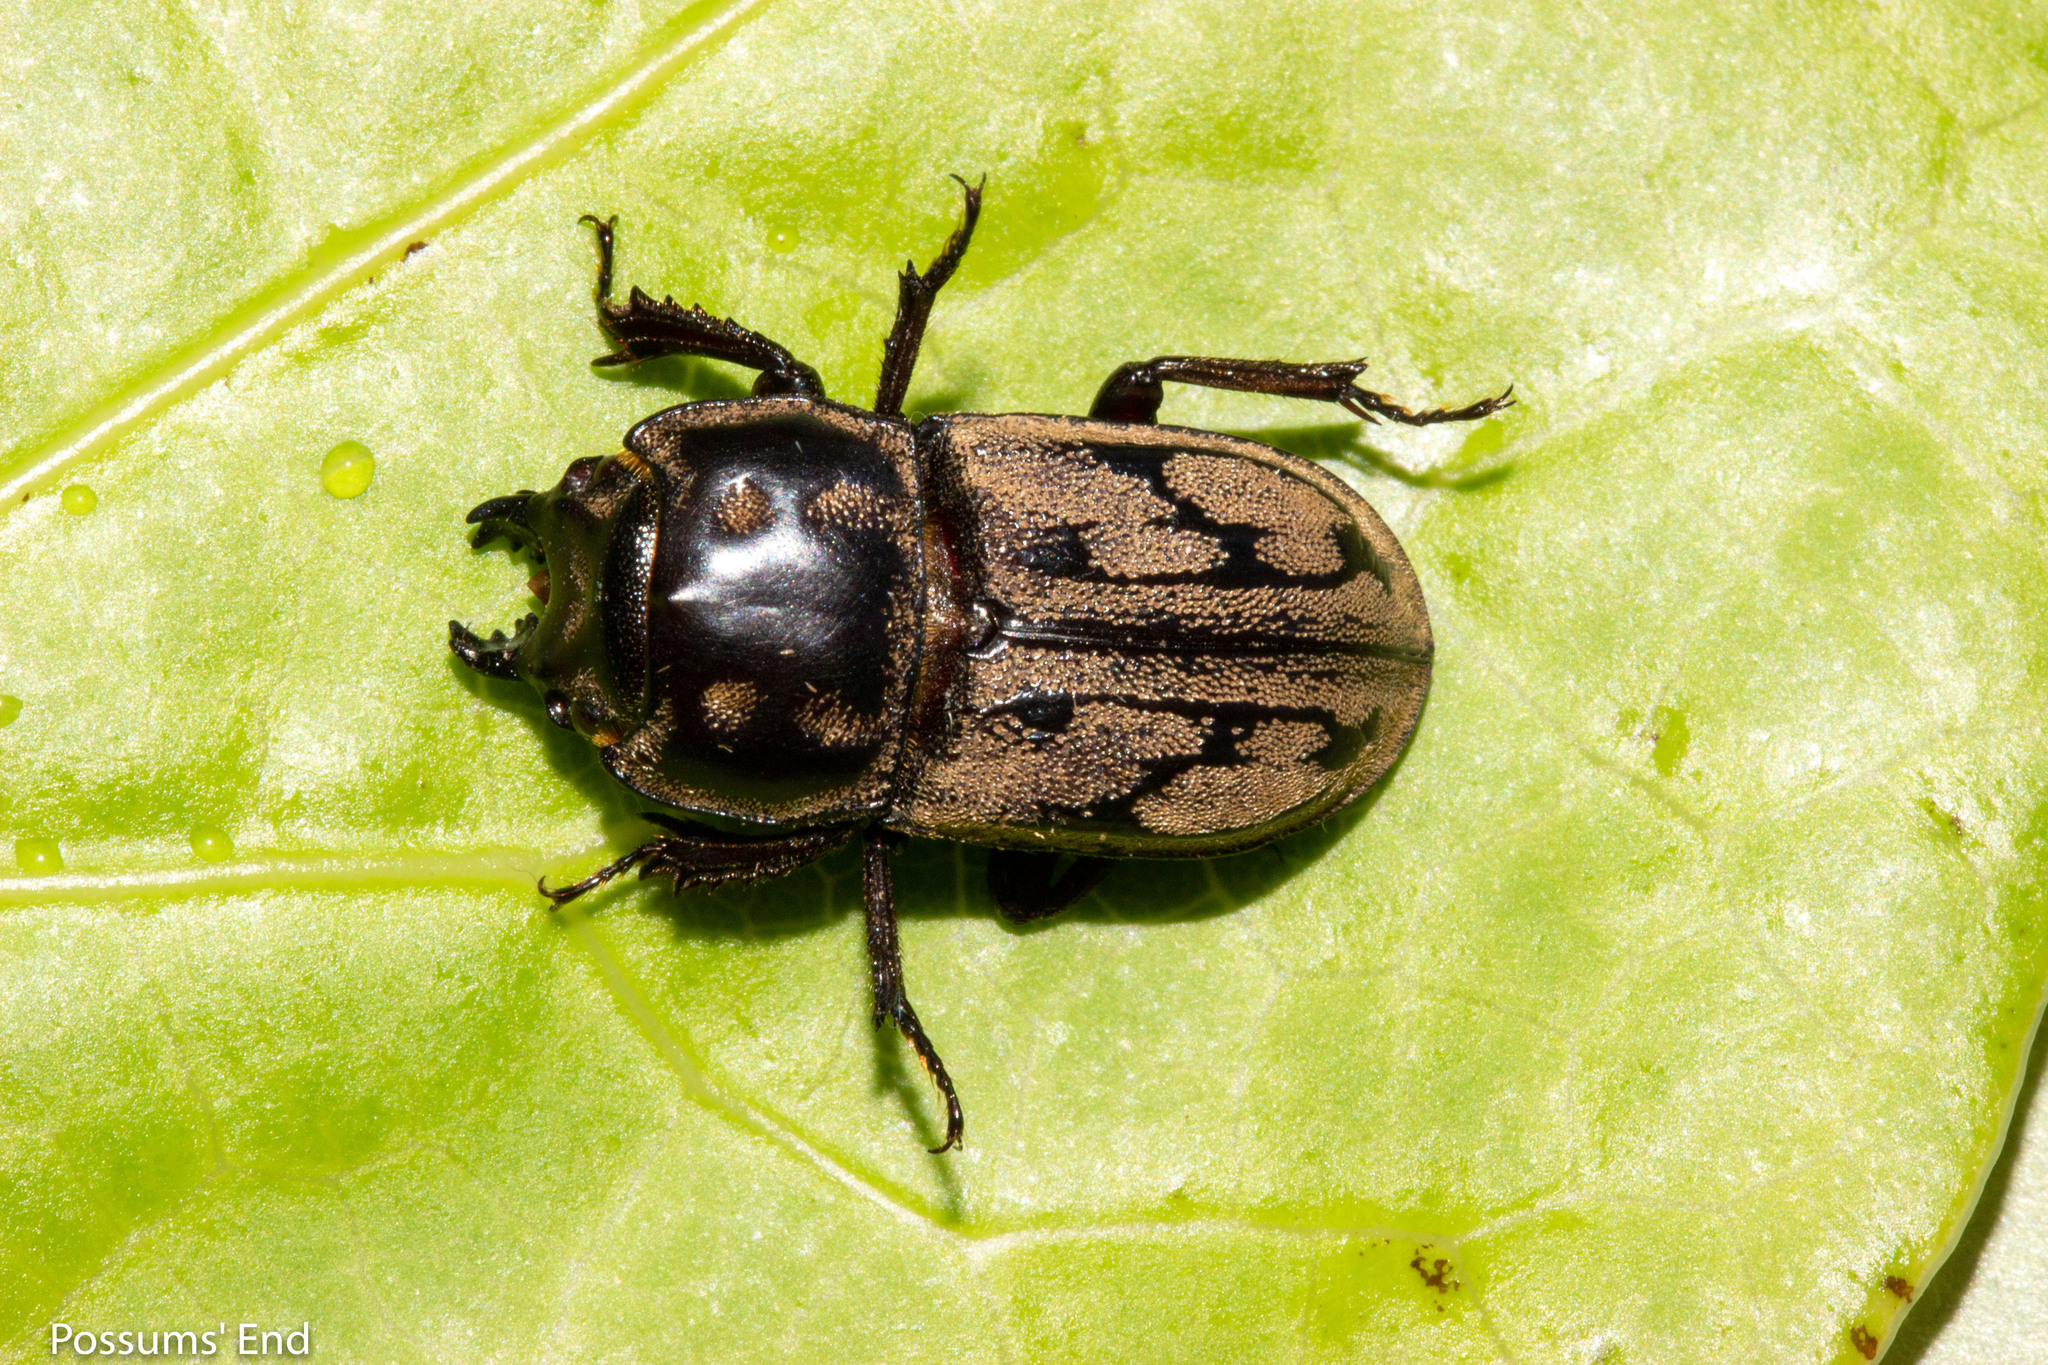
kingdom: Animalia
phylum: Arthropoda
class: Insecta
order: Coleoptera
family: Lucanidae
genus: Paralissotes
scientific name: Paralissotes reticulatus
